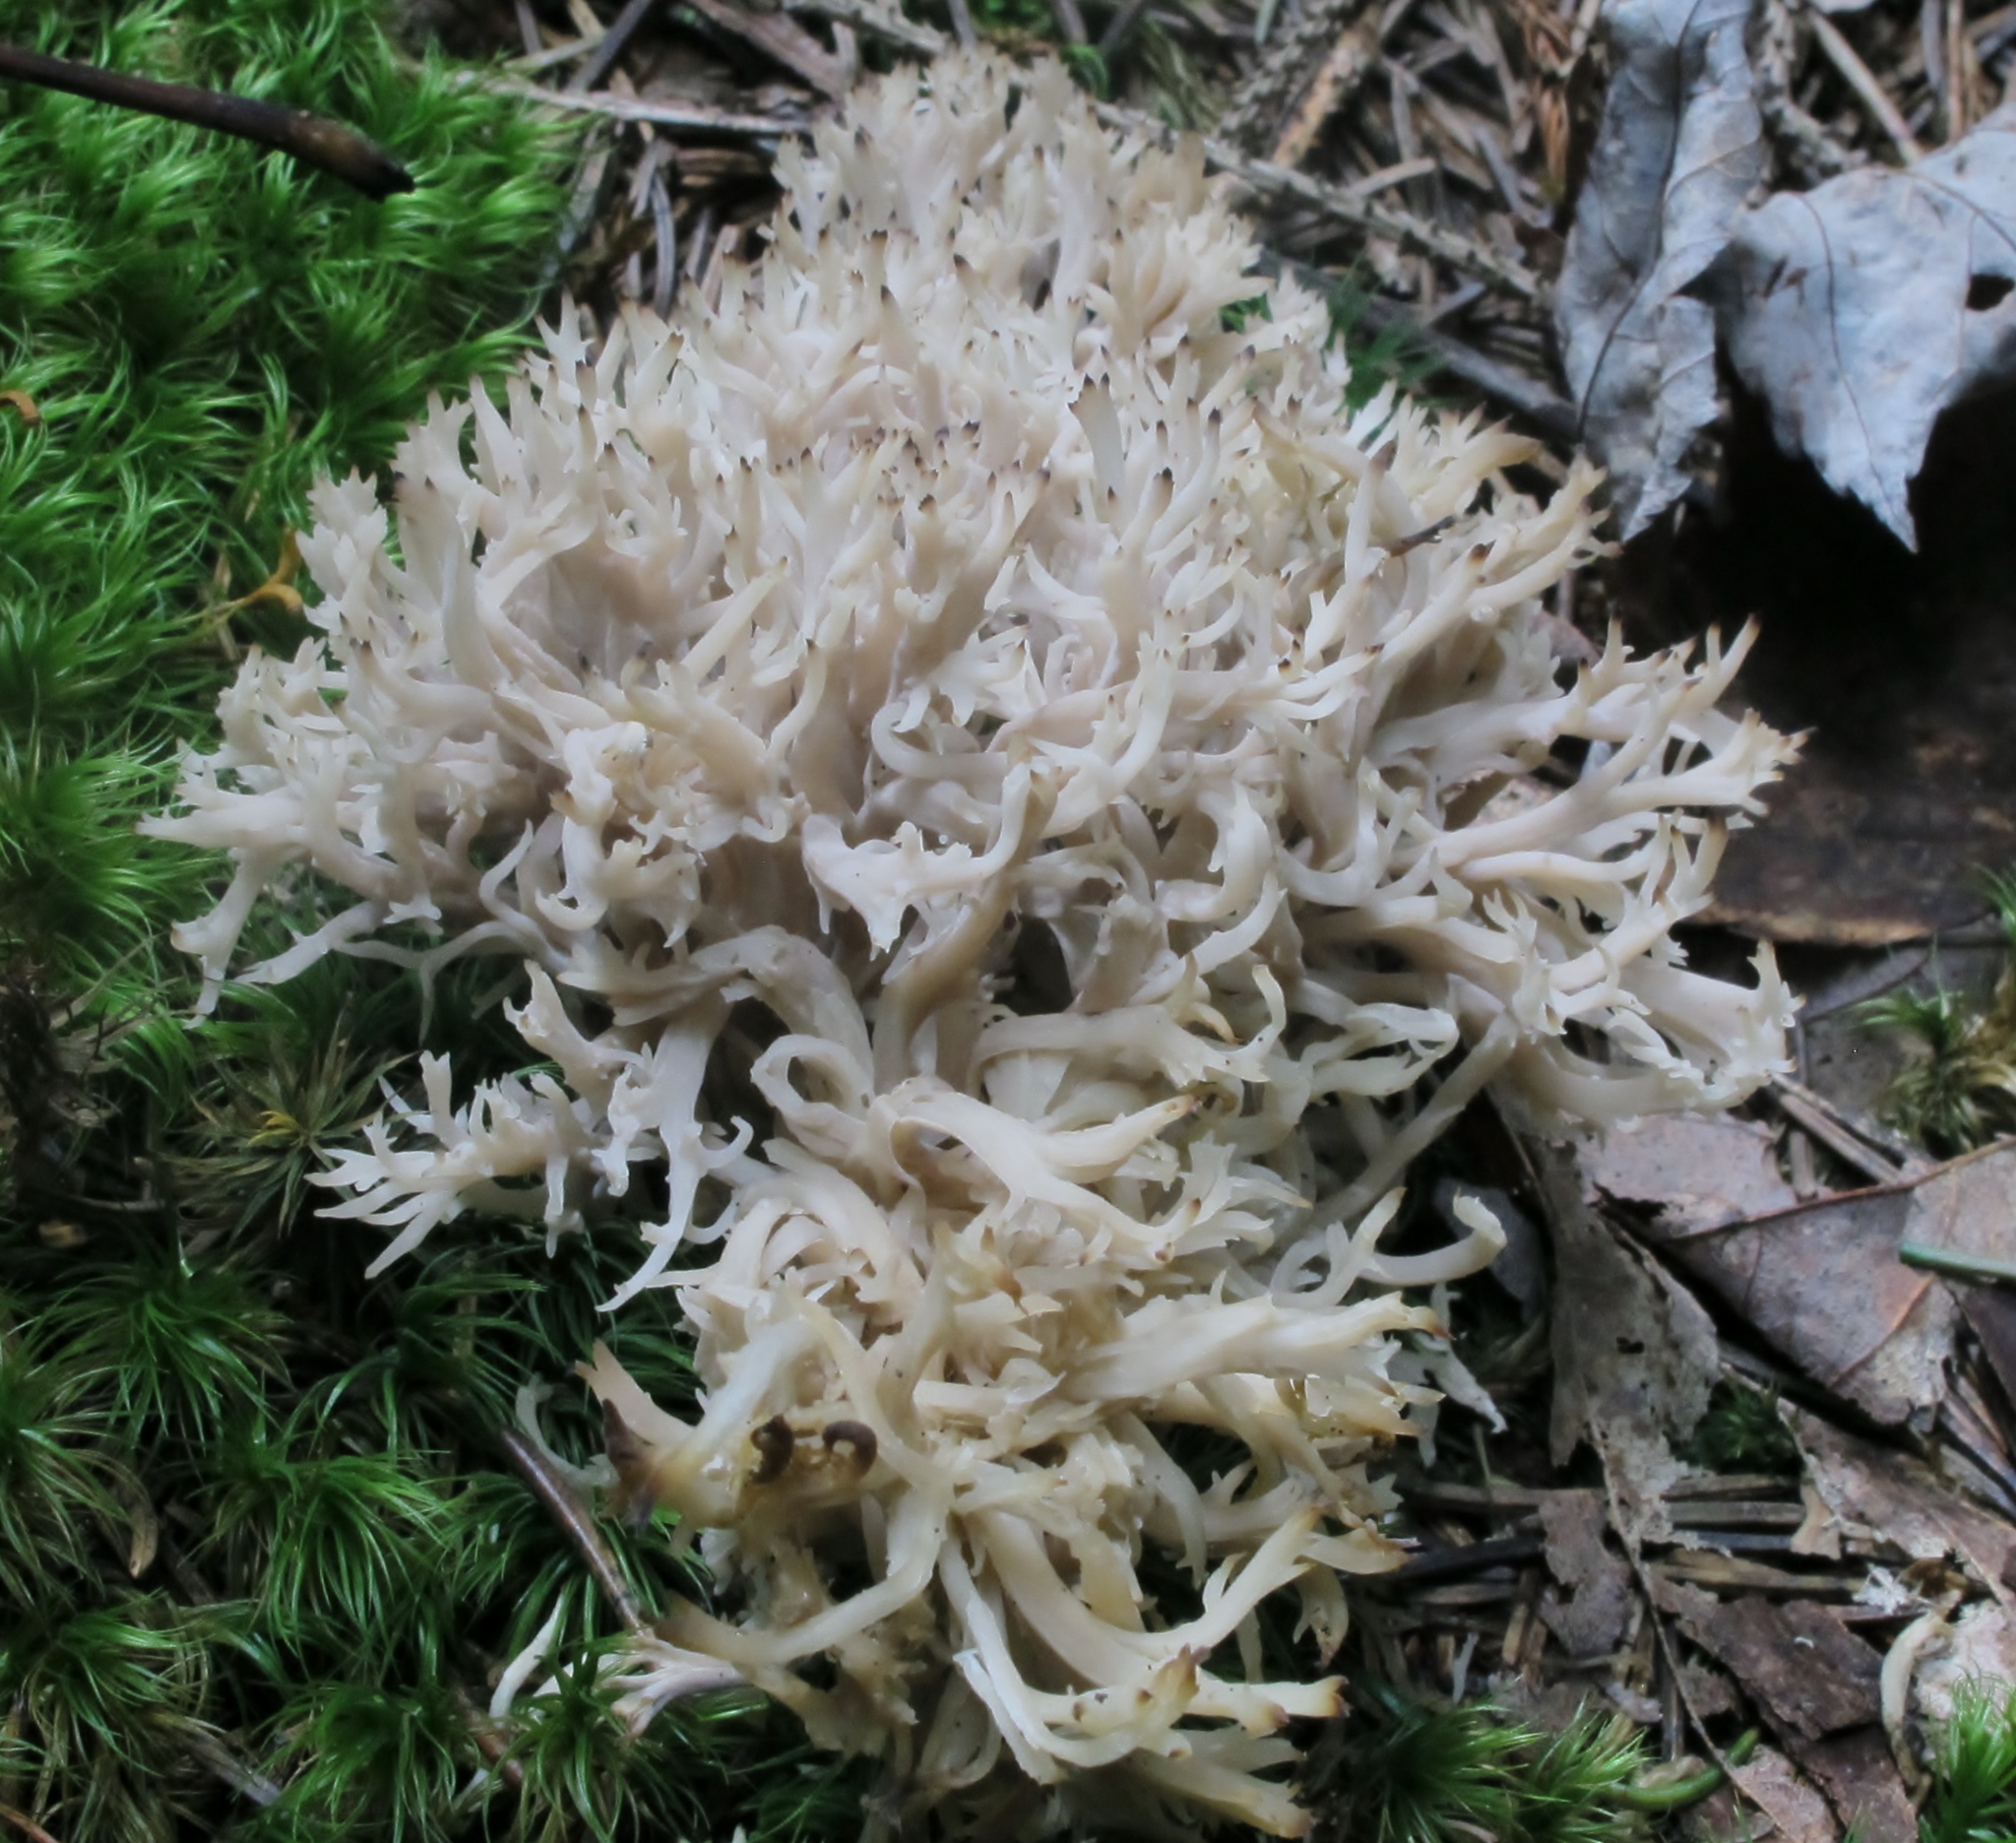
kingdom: Fungi
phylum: Basidiomycota
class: Agaricomycetes
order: Cantharellales
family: Hydnaceae
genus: Clavulina
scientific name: Clavulina coralloides
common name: Crested coral
